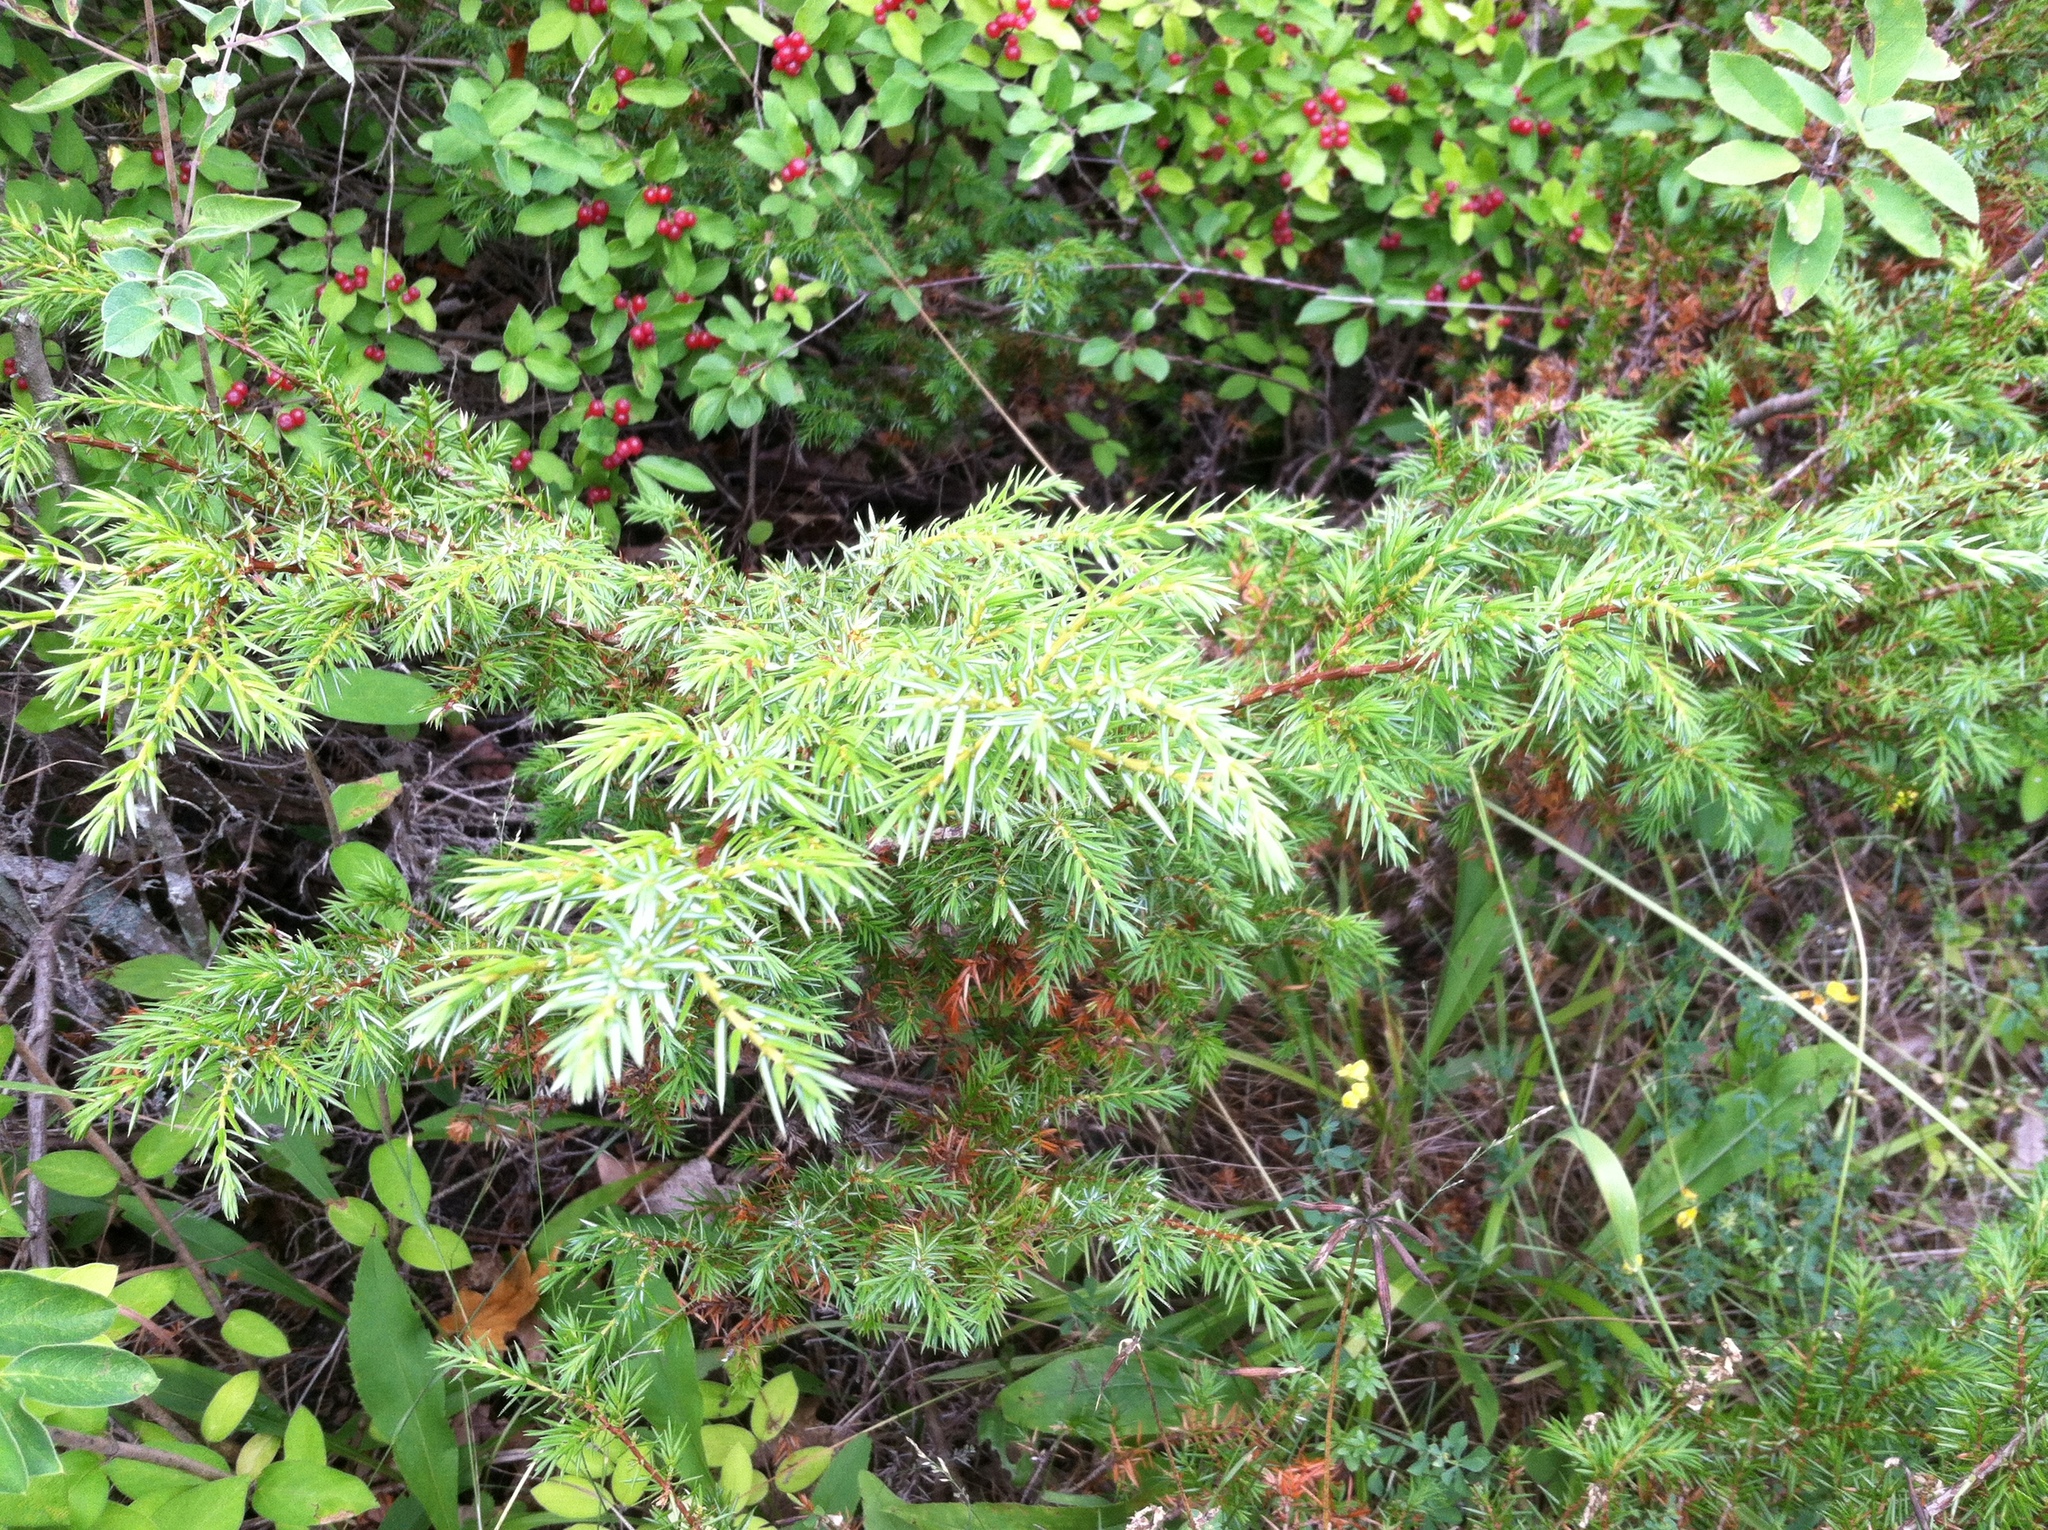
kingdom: Plantae
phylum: Tracheophyta
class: Pinopsida
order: Pinales
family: Cupressaceae
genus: Juniperus
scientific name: Juniperus communis
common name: Common juniper
